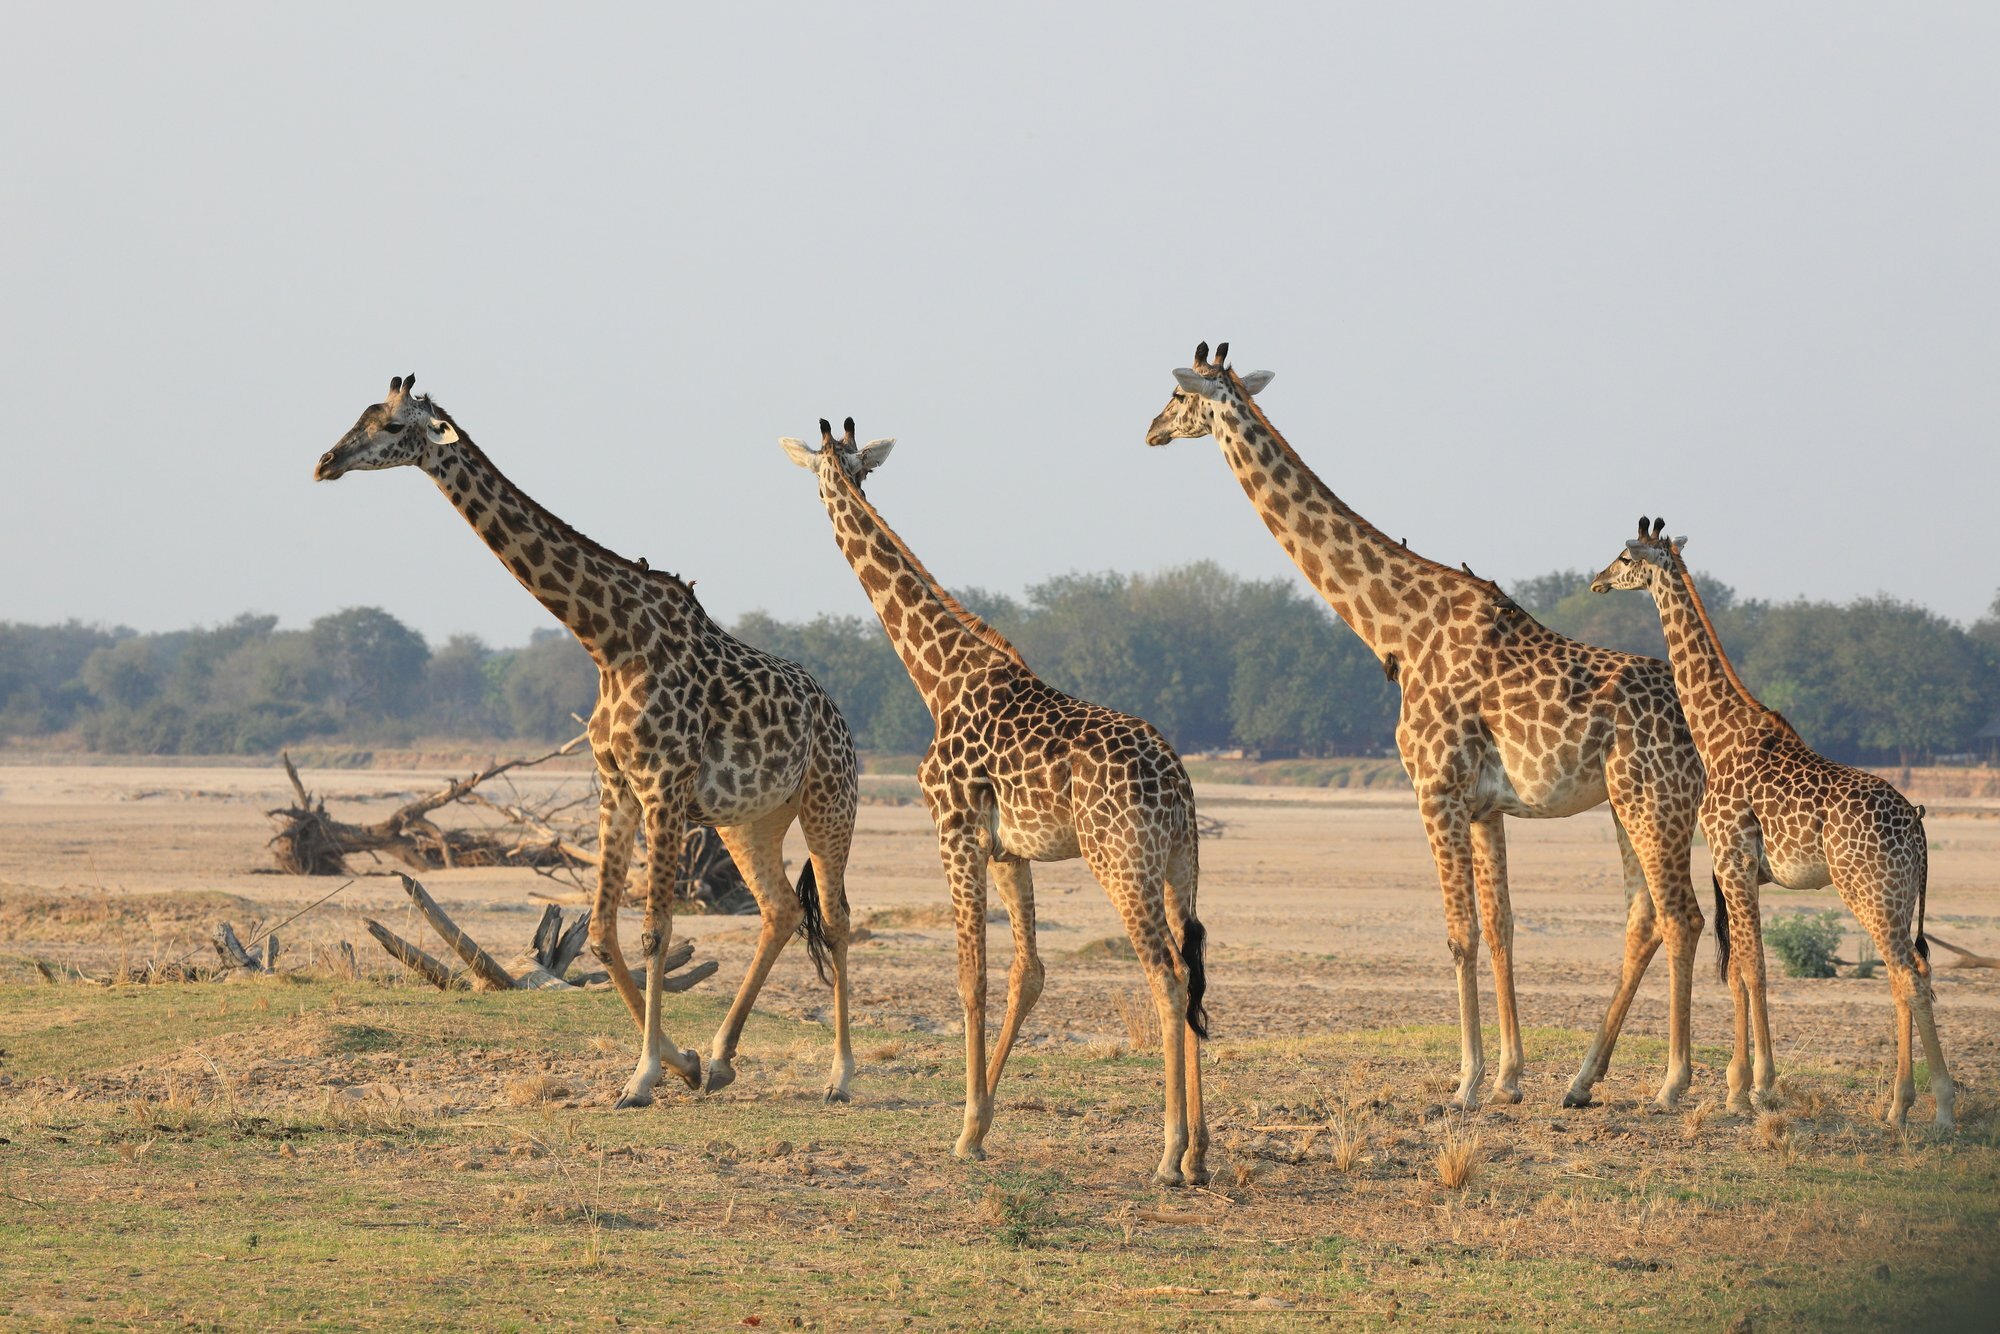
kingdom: Animalia
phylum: Chordata
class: Mammalia
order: Artiodactyla
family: Giraffidae
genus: Giraffa
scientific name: Giraffa tippelskirchi
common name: Masai giraffe
